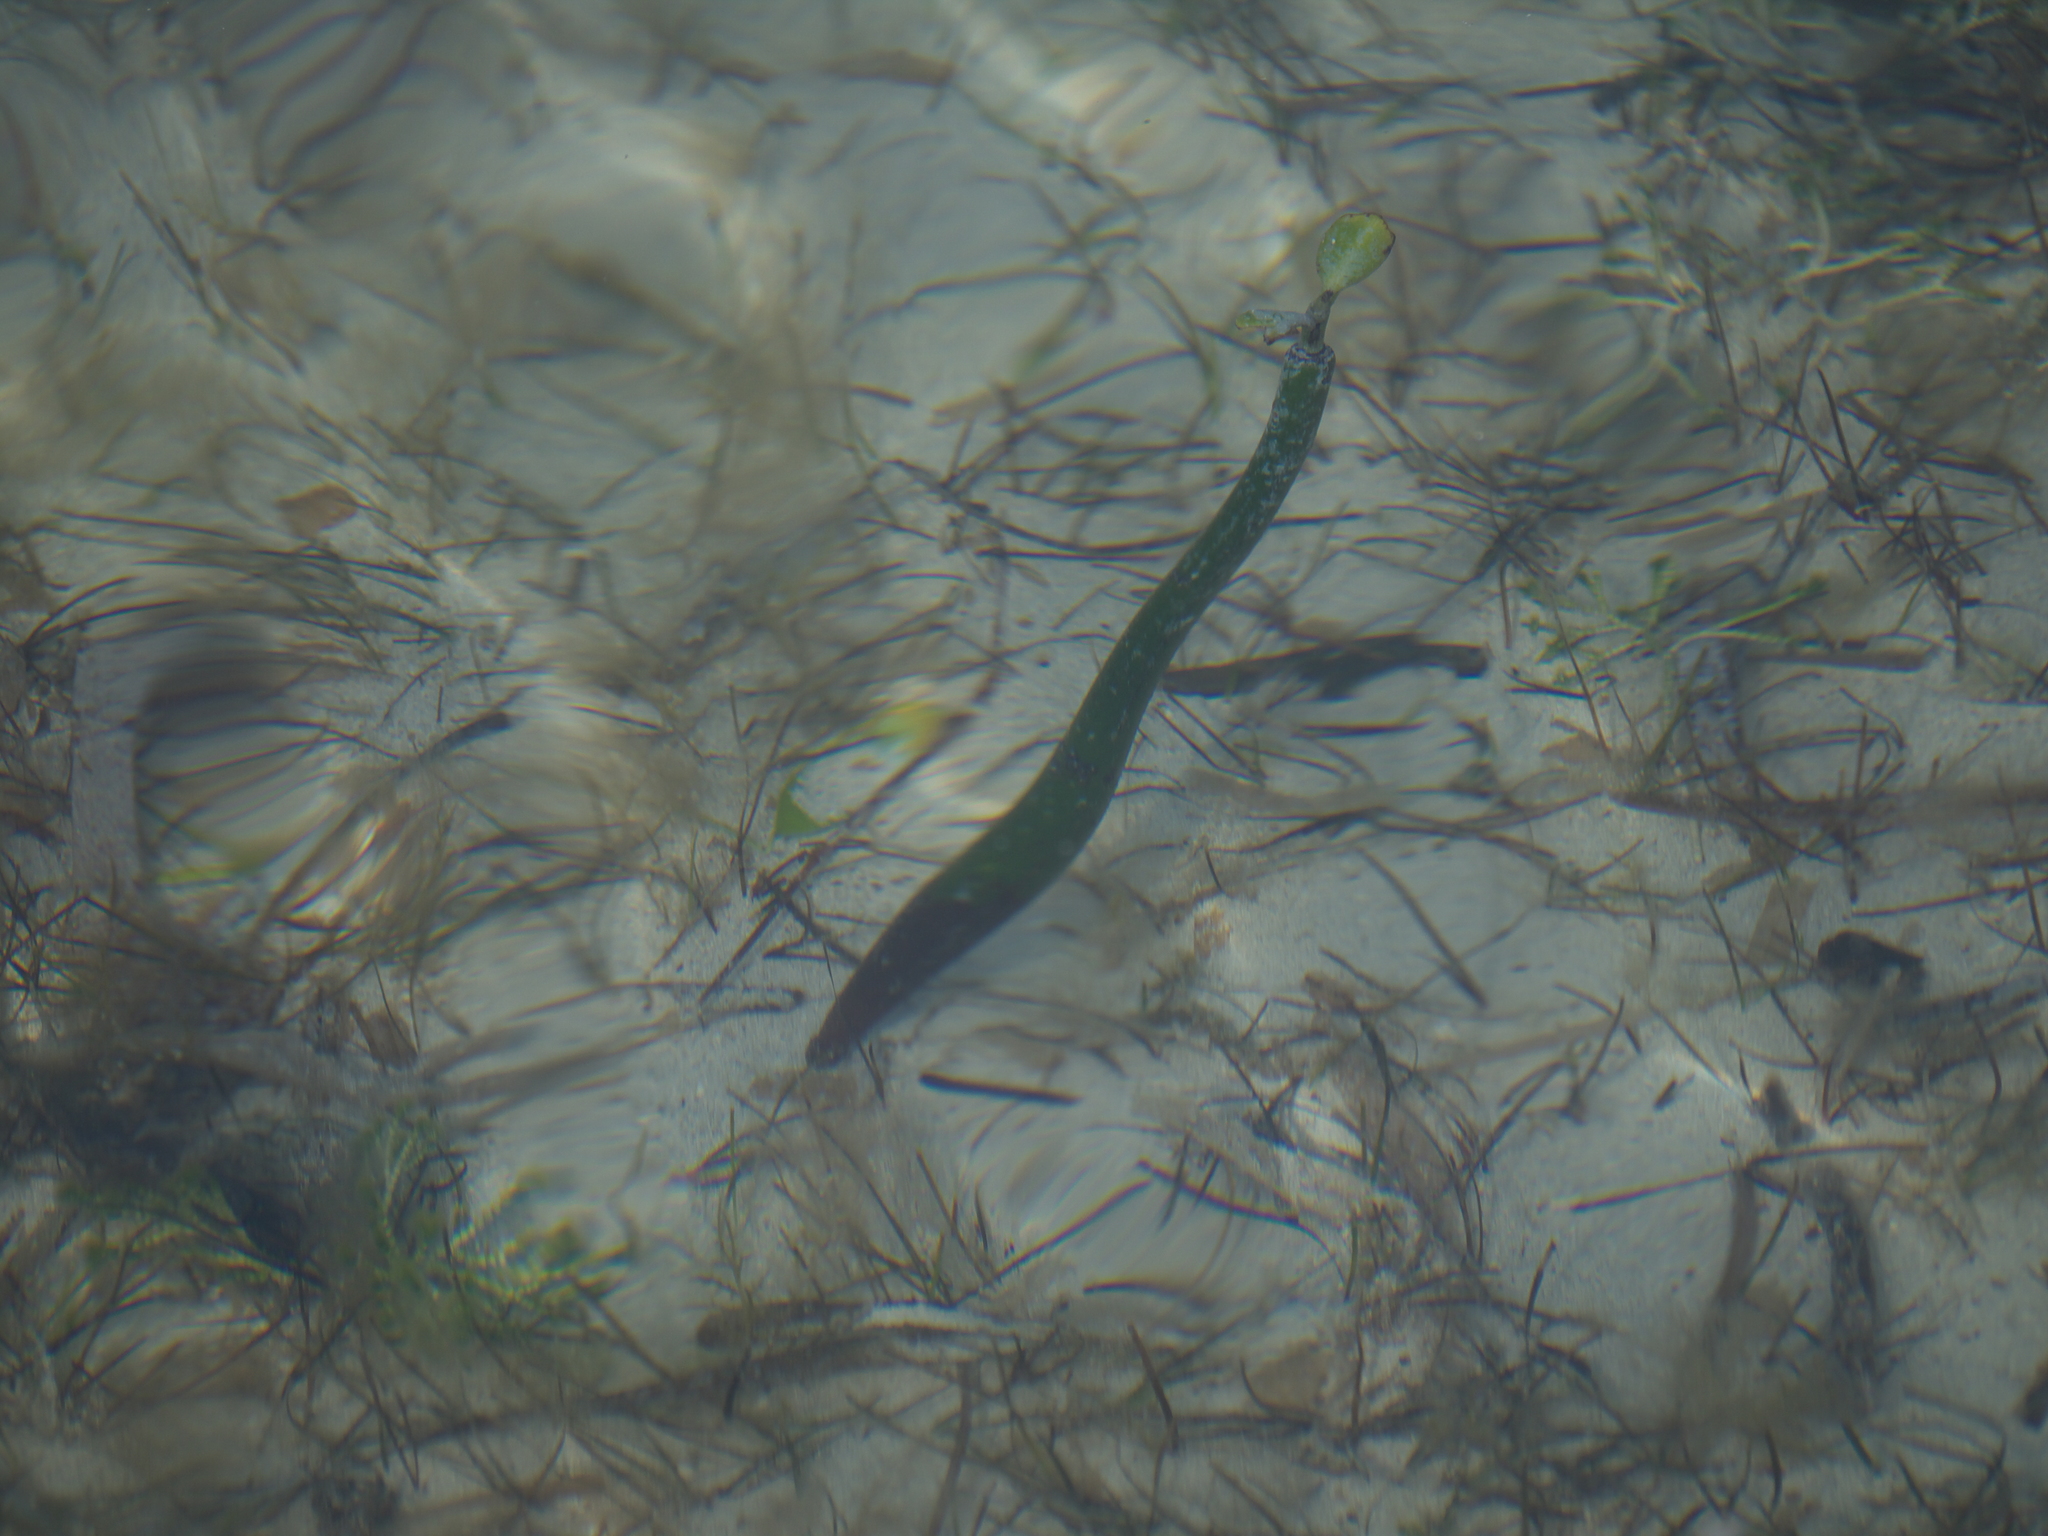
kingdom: Plantae
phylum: Tracheophyta
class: Magnoliopsida
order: Malpighiales
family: Rhizophoraceae
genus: Rhizophora
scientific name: Rhizophora mangle
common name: Red mangrove
